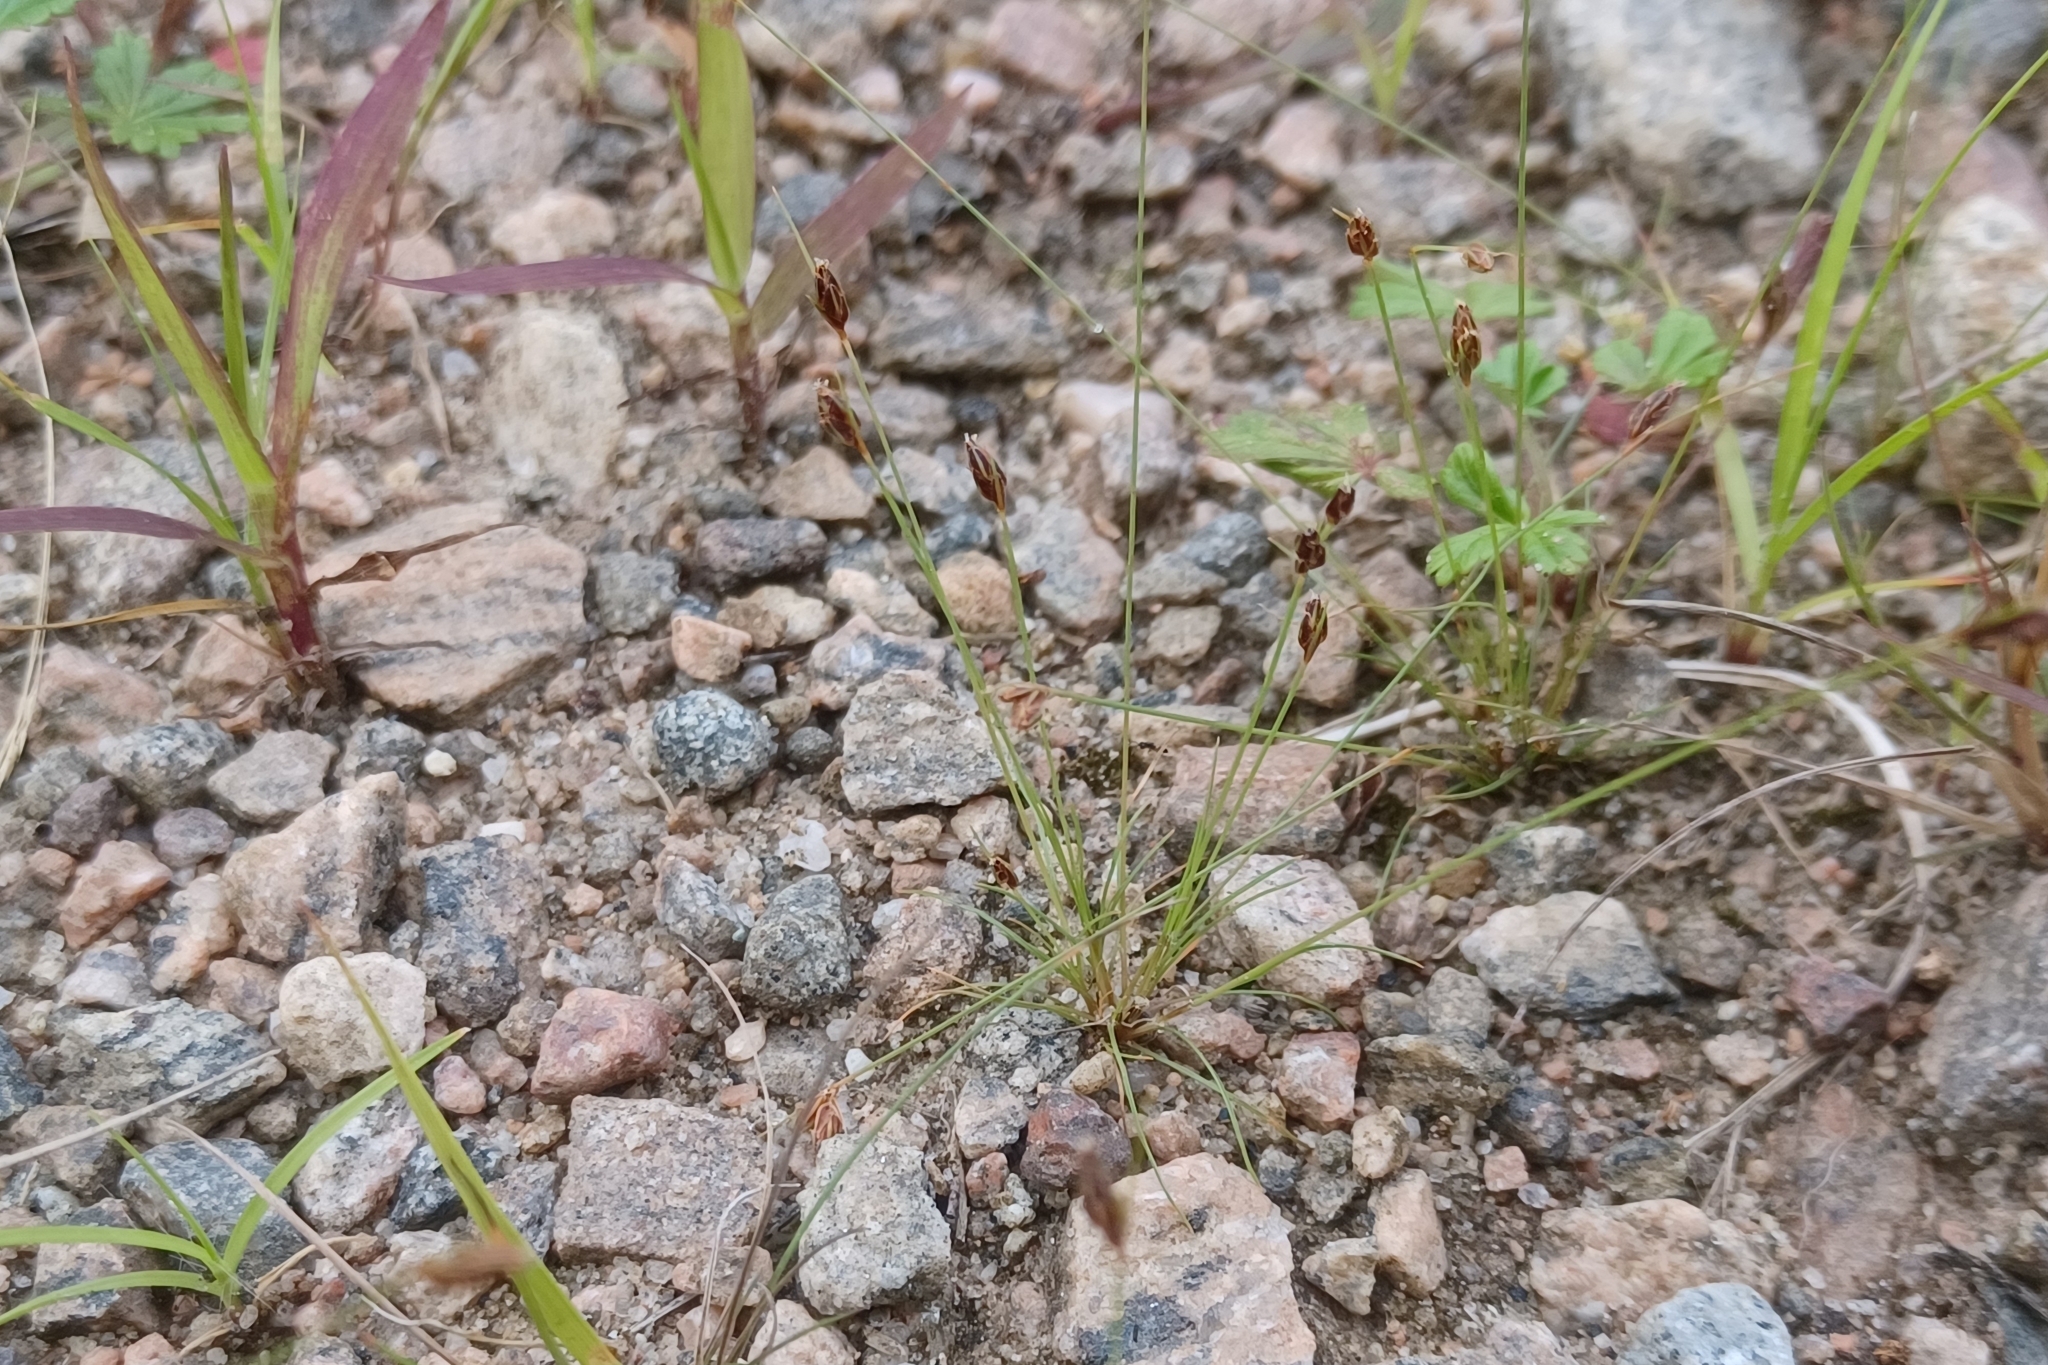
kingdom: Plantae
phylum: Tracheophyta
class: Liliopsida
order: Poales
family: Cyperaceae
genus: Bulbostylis
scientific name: Bulbostylis capillaris
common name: Densetuft hairsedge
